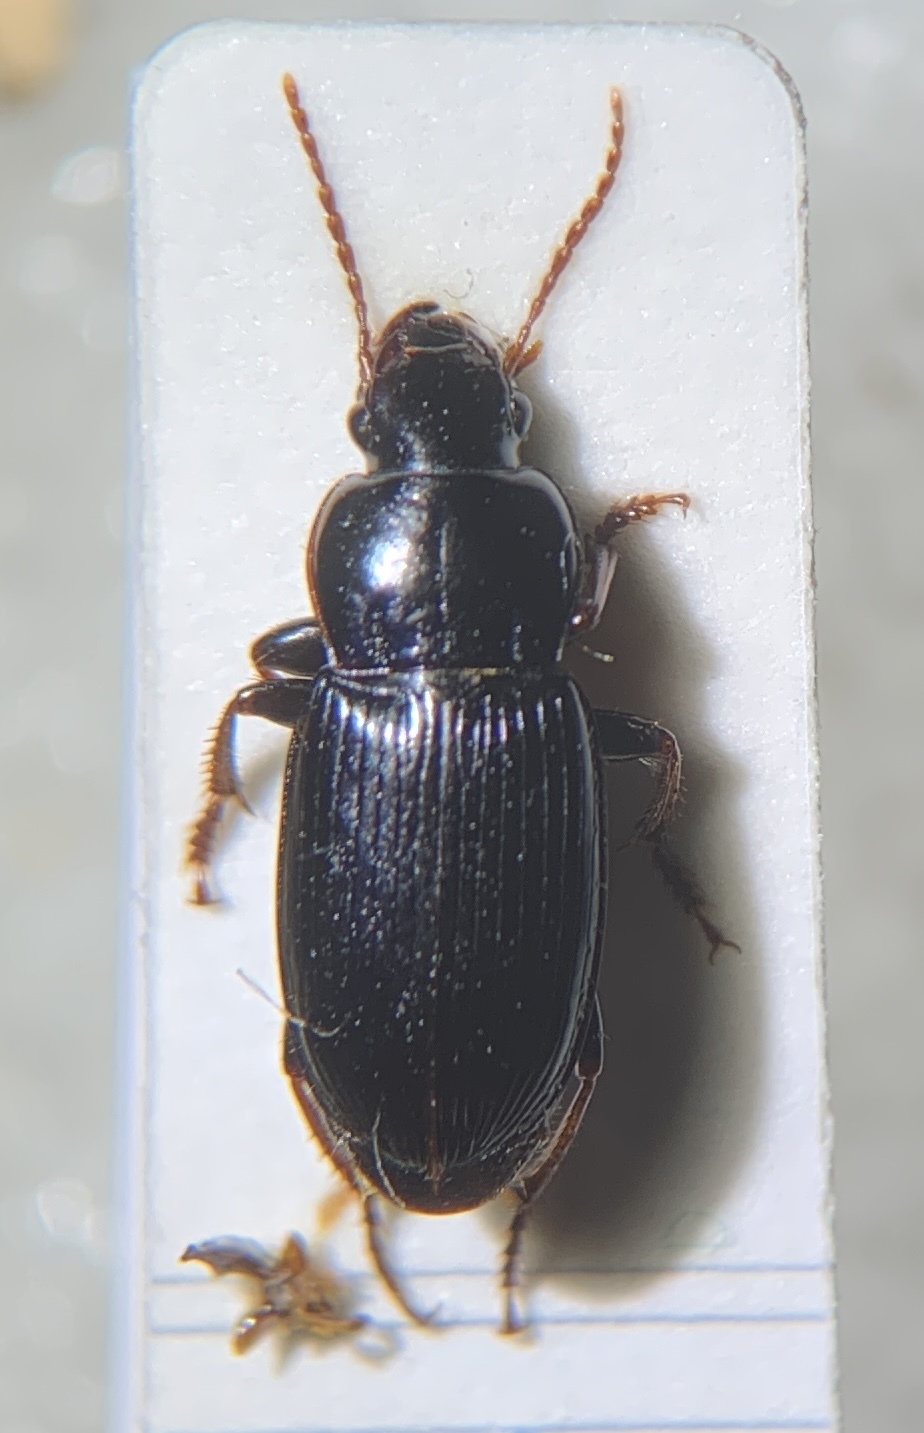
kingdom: Animalia
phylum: Arthropoda
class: Insecta
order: Coleoptera
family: Carabidae
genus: Harpalus
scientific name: Harpalus rufipalpis
